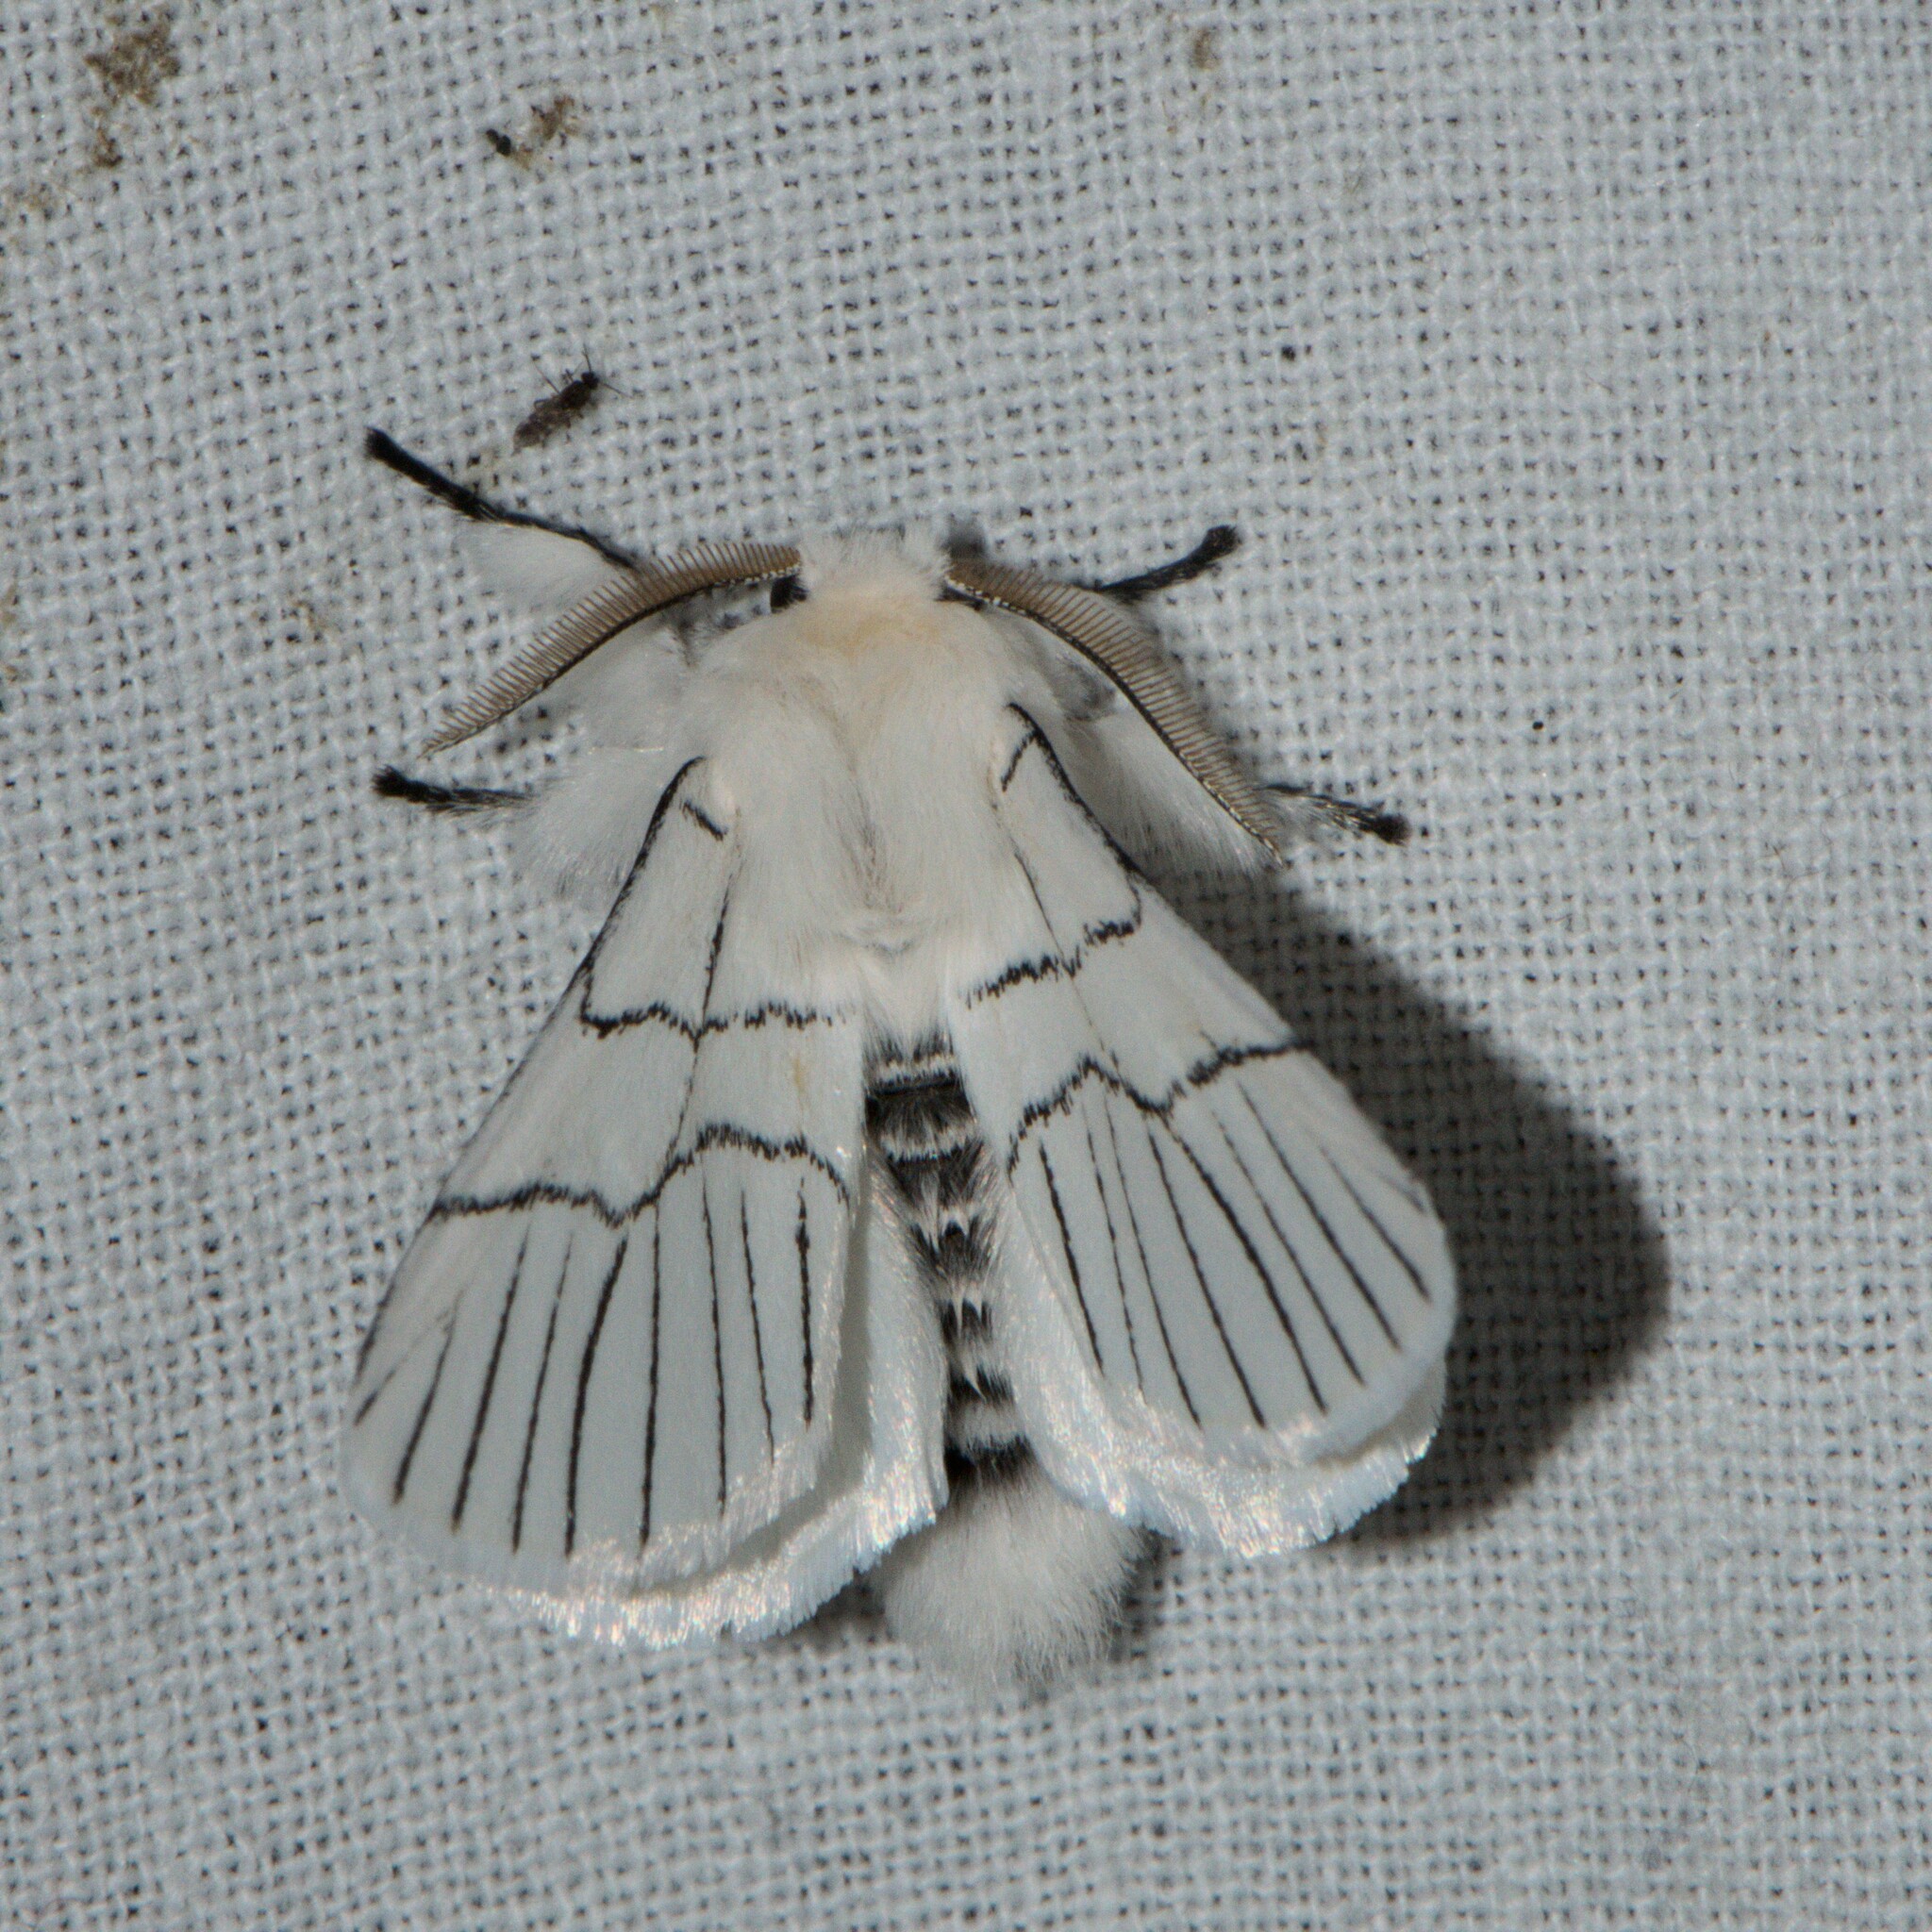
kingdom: Animalia
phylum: Arthropoda
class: Insecta
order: Lepidoptera
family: Notodontidae
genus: Oligoclona
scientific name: Oligoclona chrysolopha
